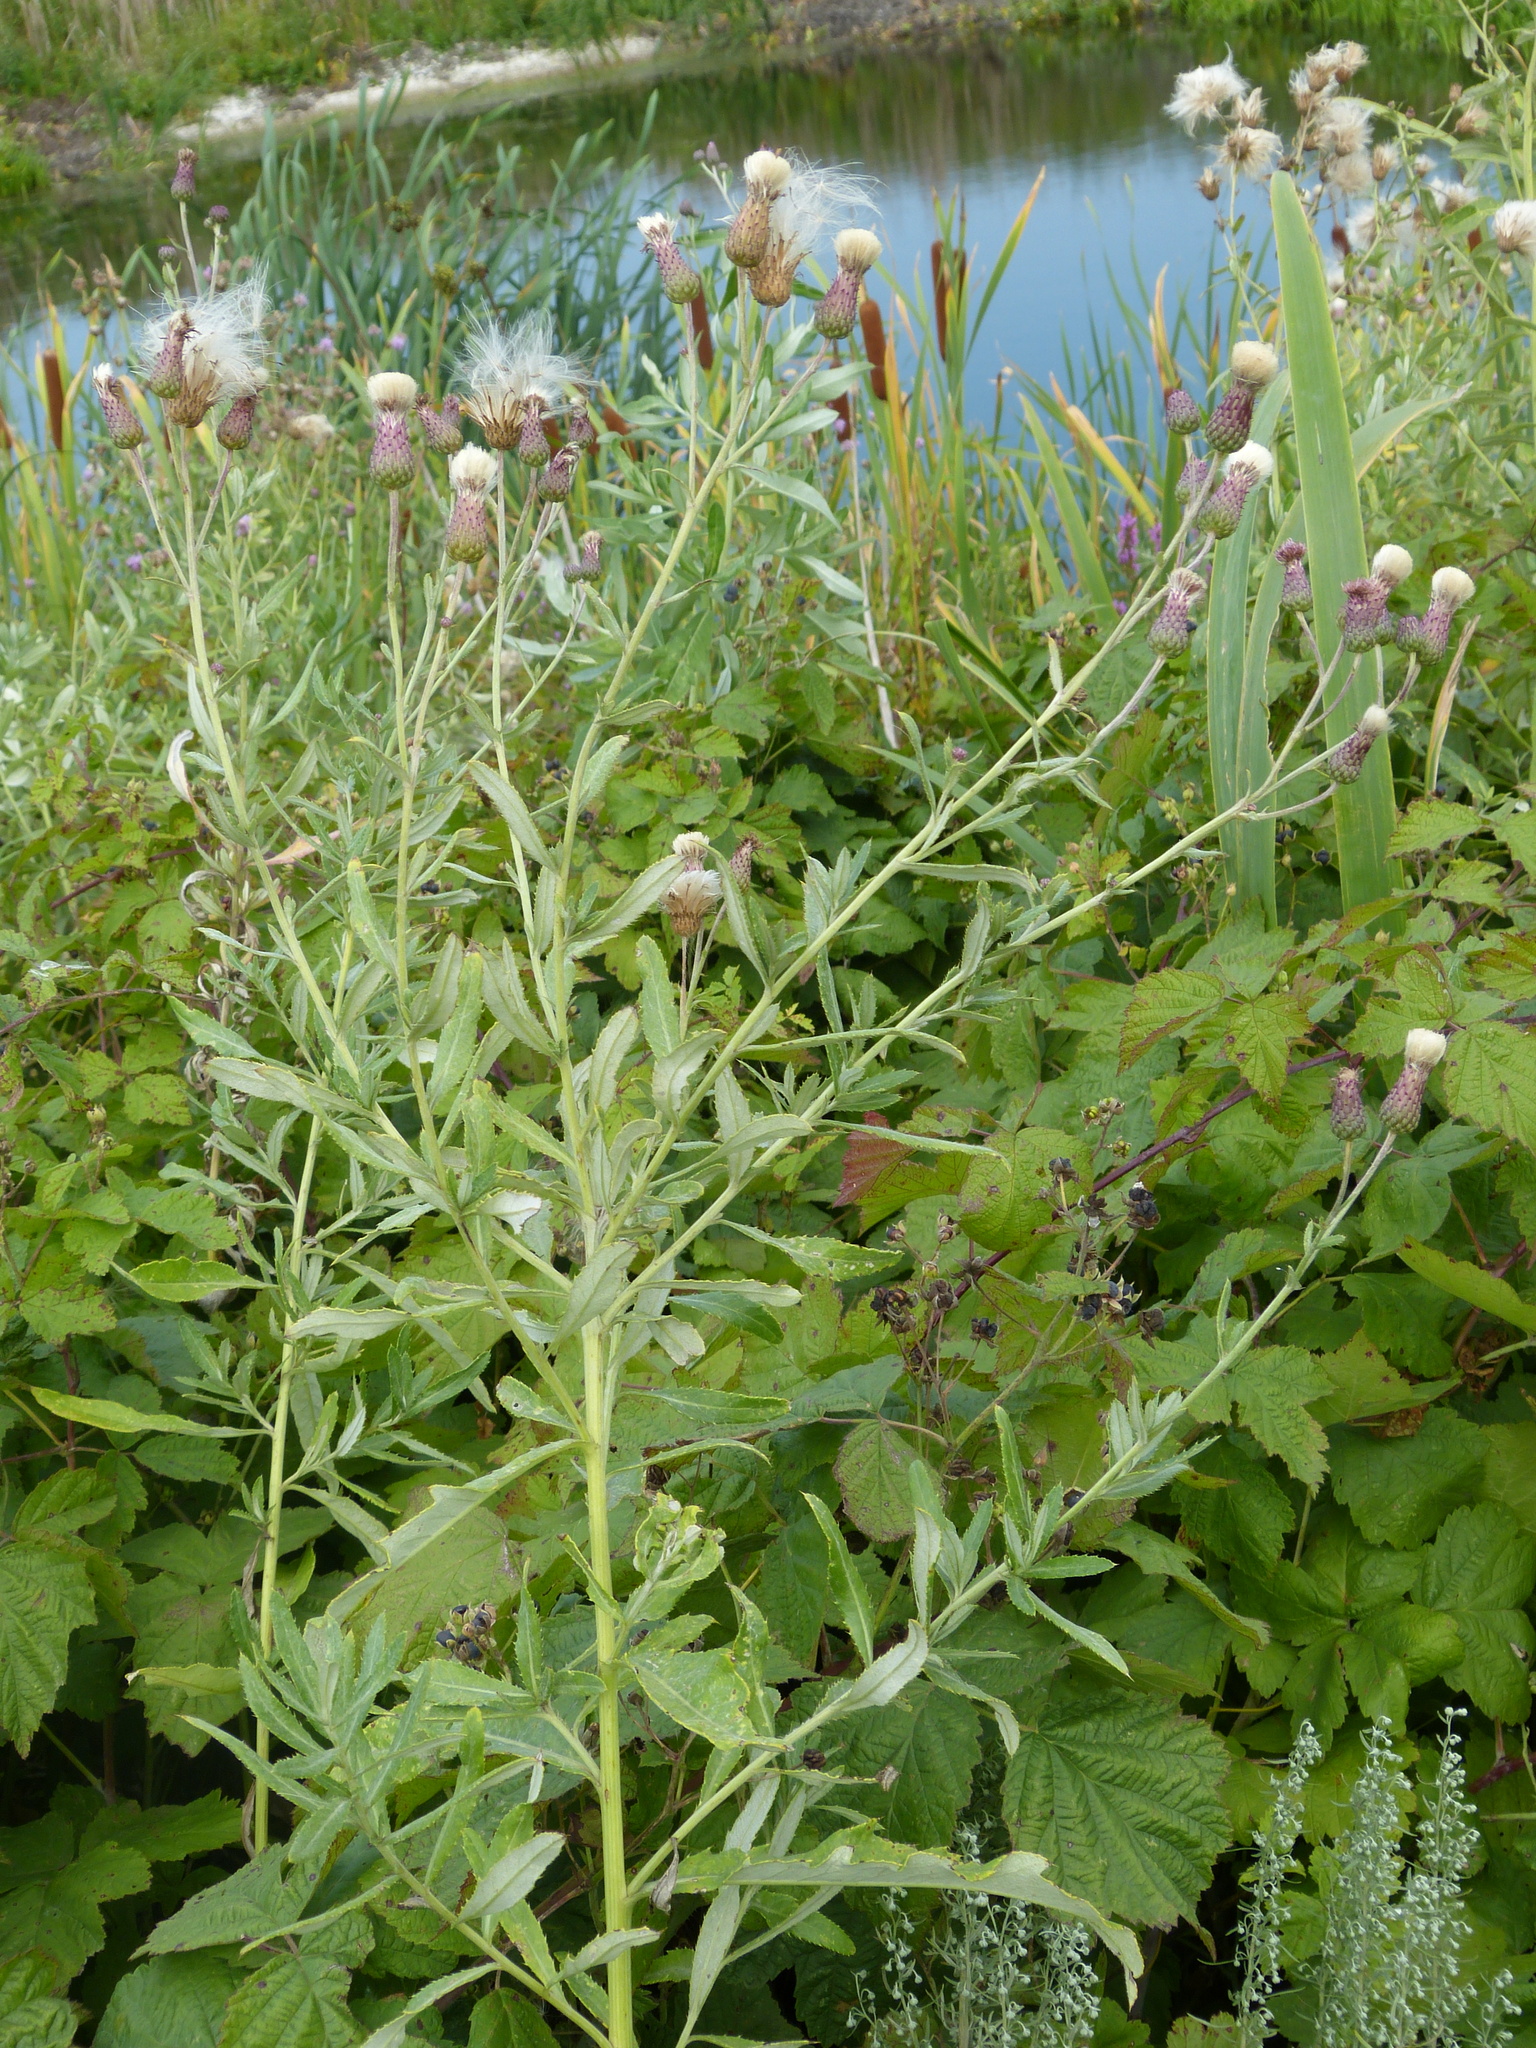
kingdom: Plantae
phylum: Tracheophyta
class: Magnoliopsida
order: Asterales
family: Asteraceae
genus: Cirsium
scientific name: Cirsium arvense
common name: Creeping thistle
